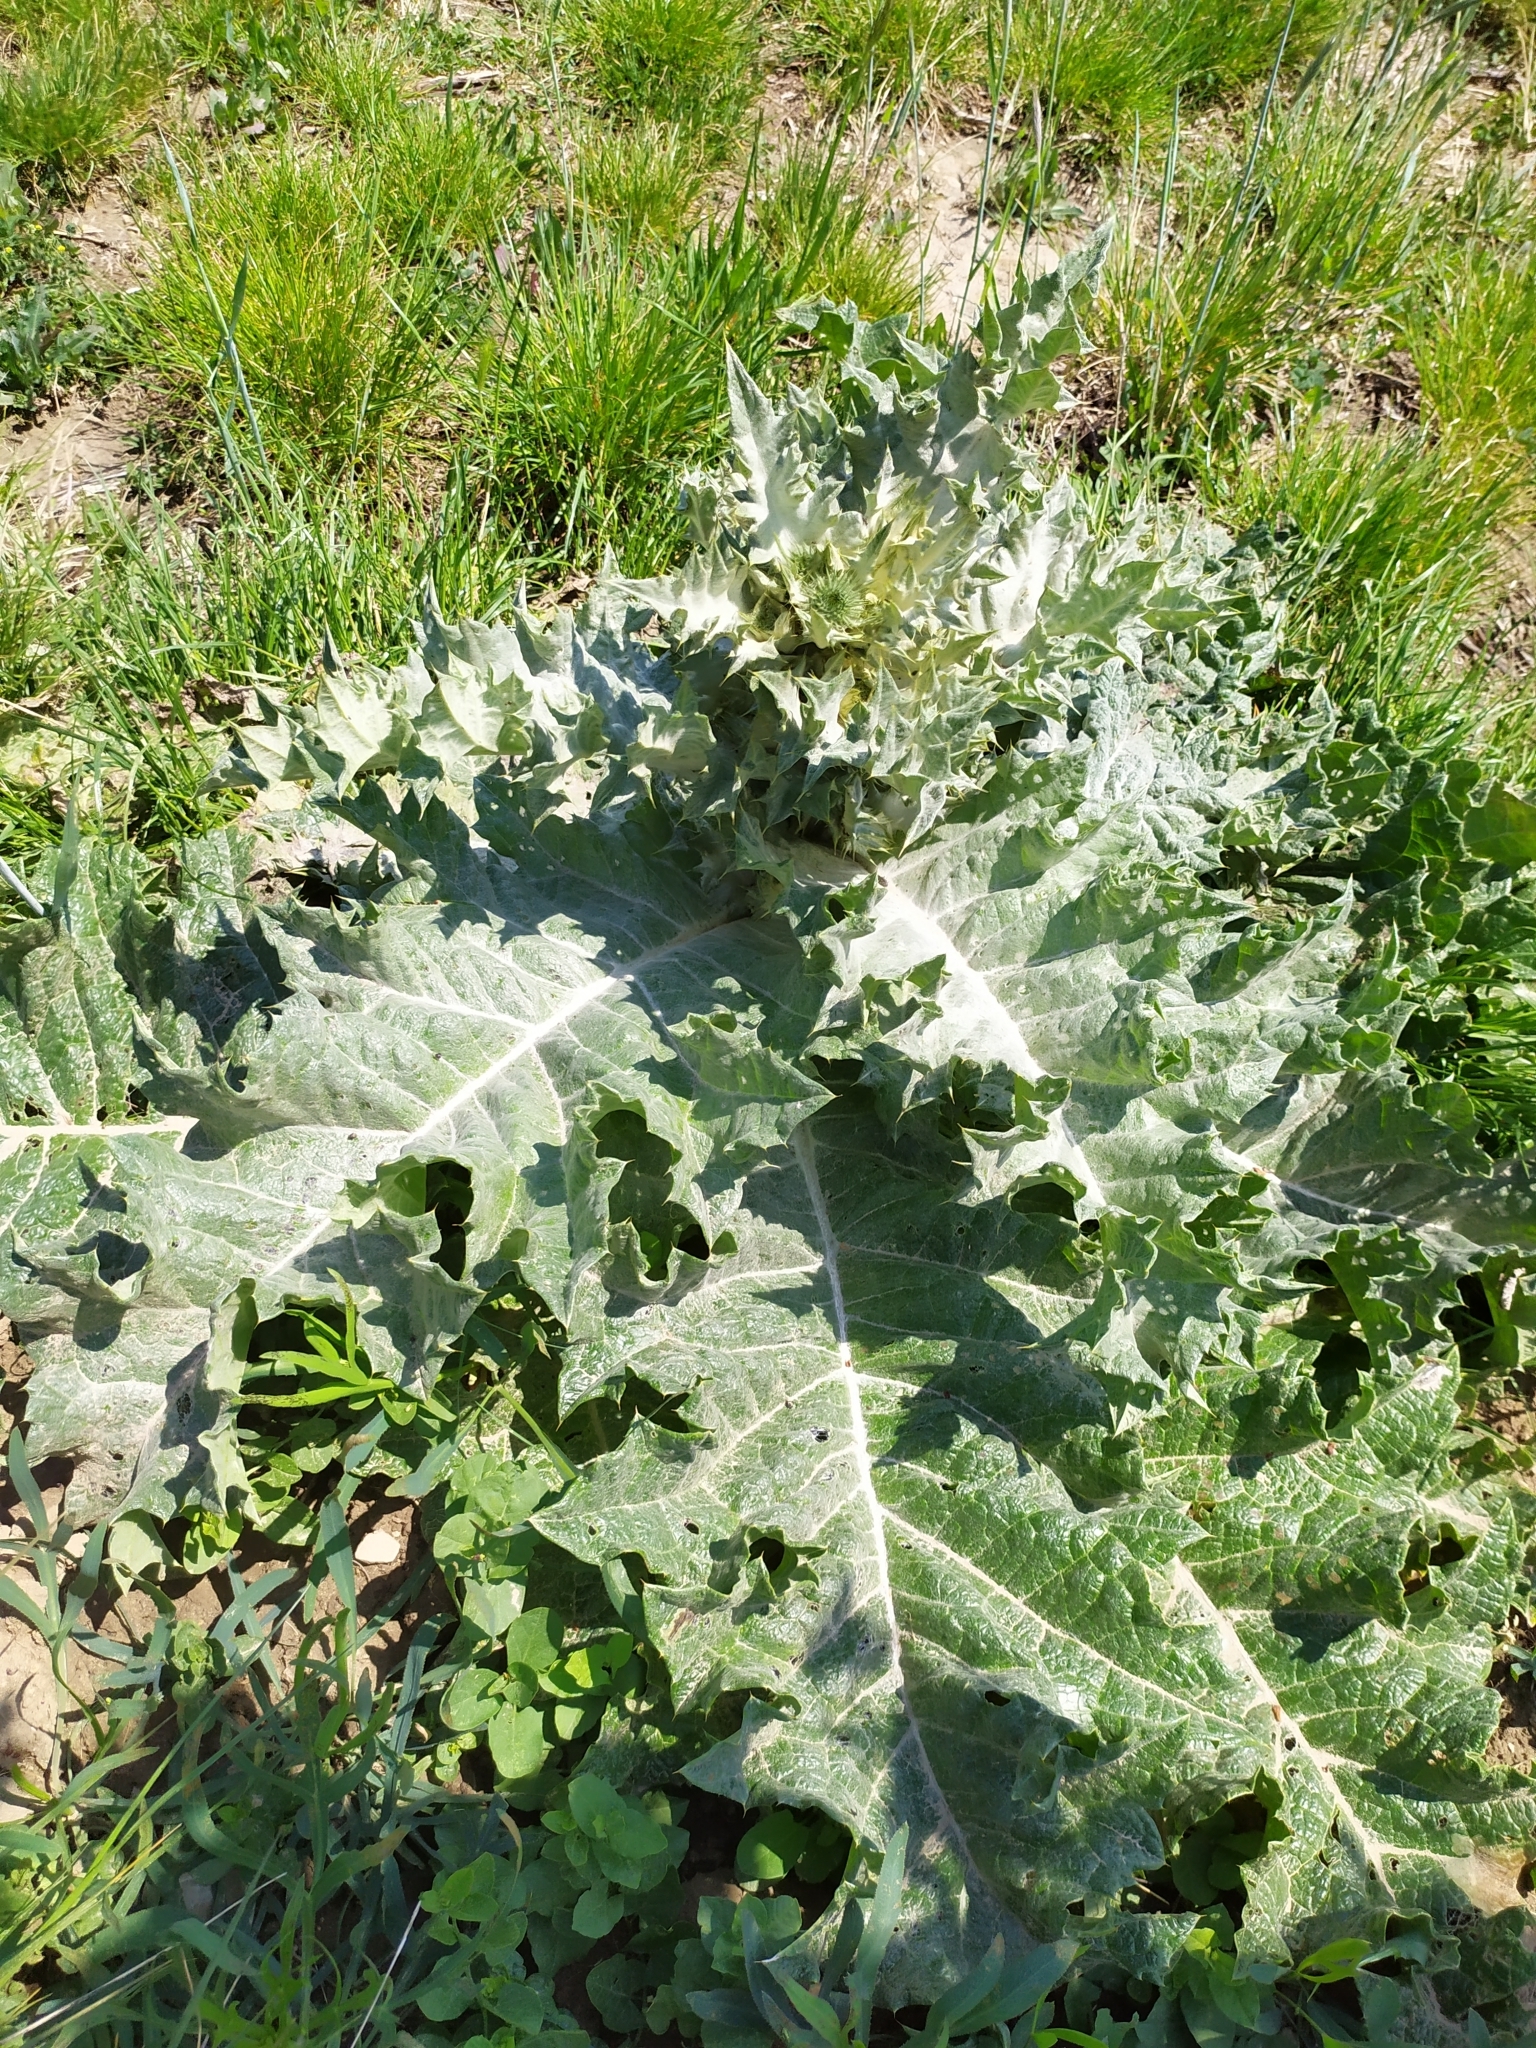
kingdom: Plantae
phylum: Tracheophyta
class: Magnoliopsida
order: Asterales
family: Asteraceae
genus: Onopordum
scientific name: Onopordum acanthium
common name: Scotch thistle
